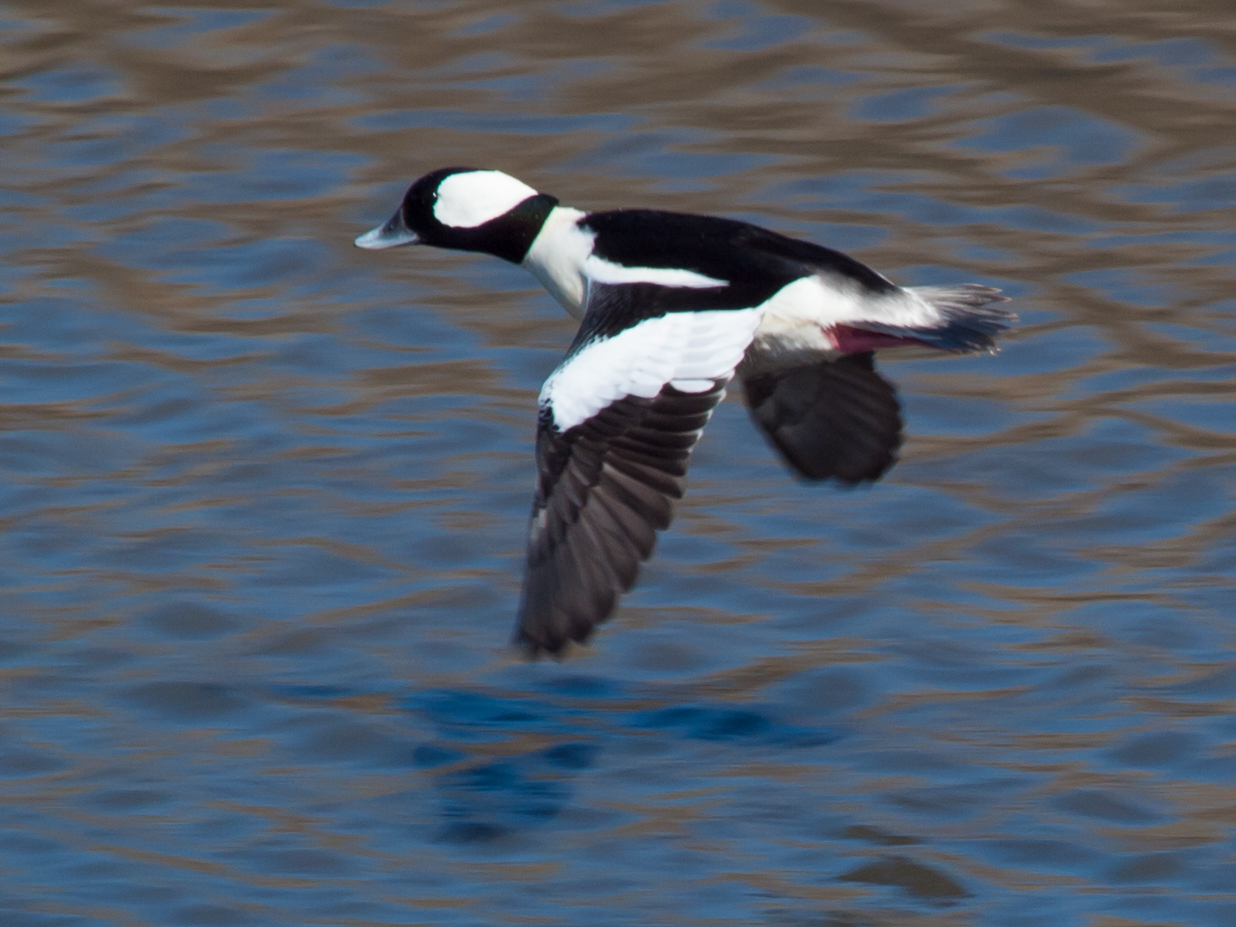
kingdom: Animalia
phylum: Chordata
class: Aves
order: Anseriformes
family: Anatidae
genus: Bucephala
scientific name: Bucephala albeola
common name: Bufflehead
